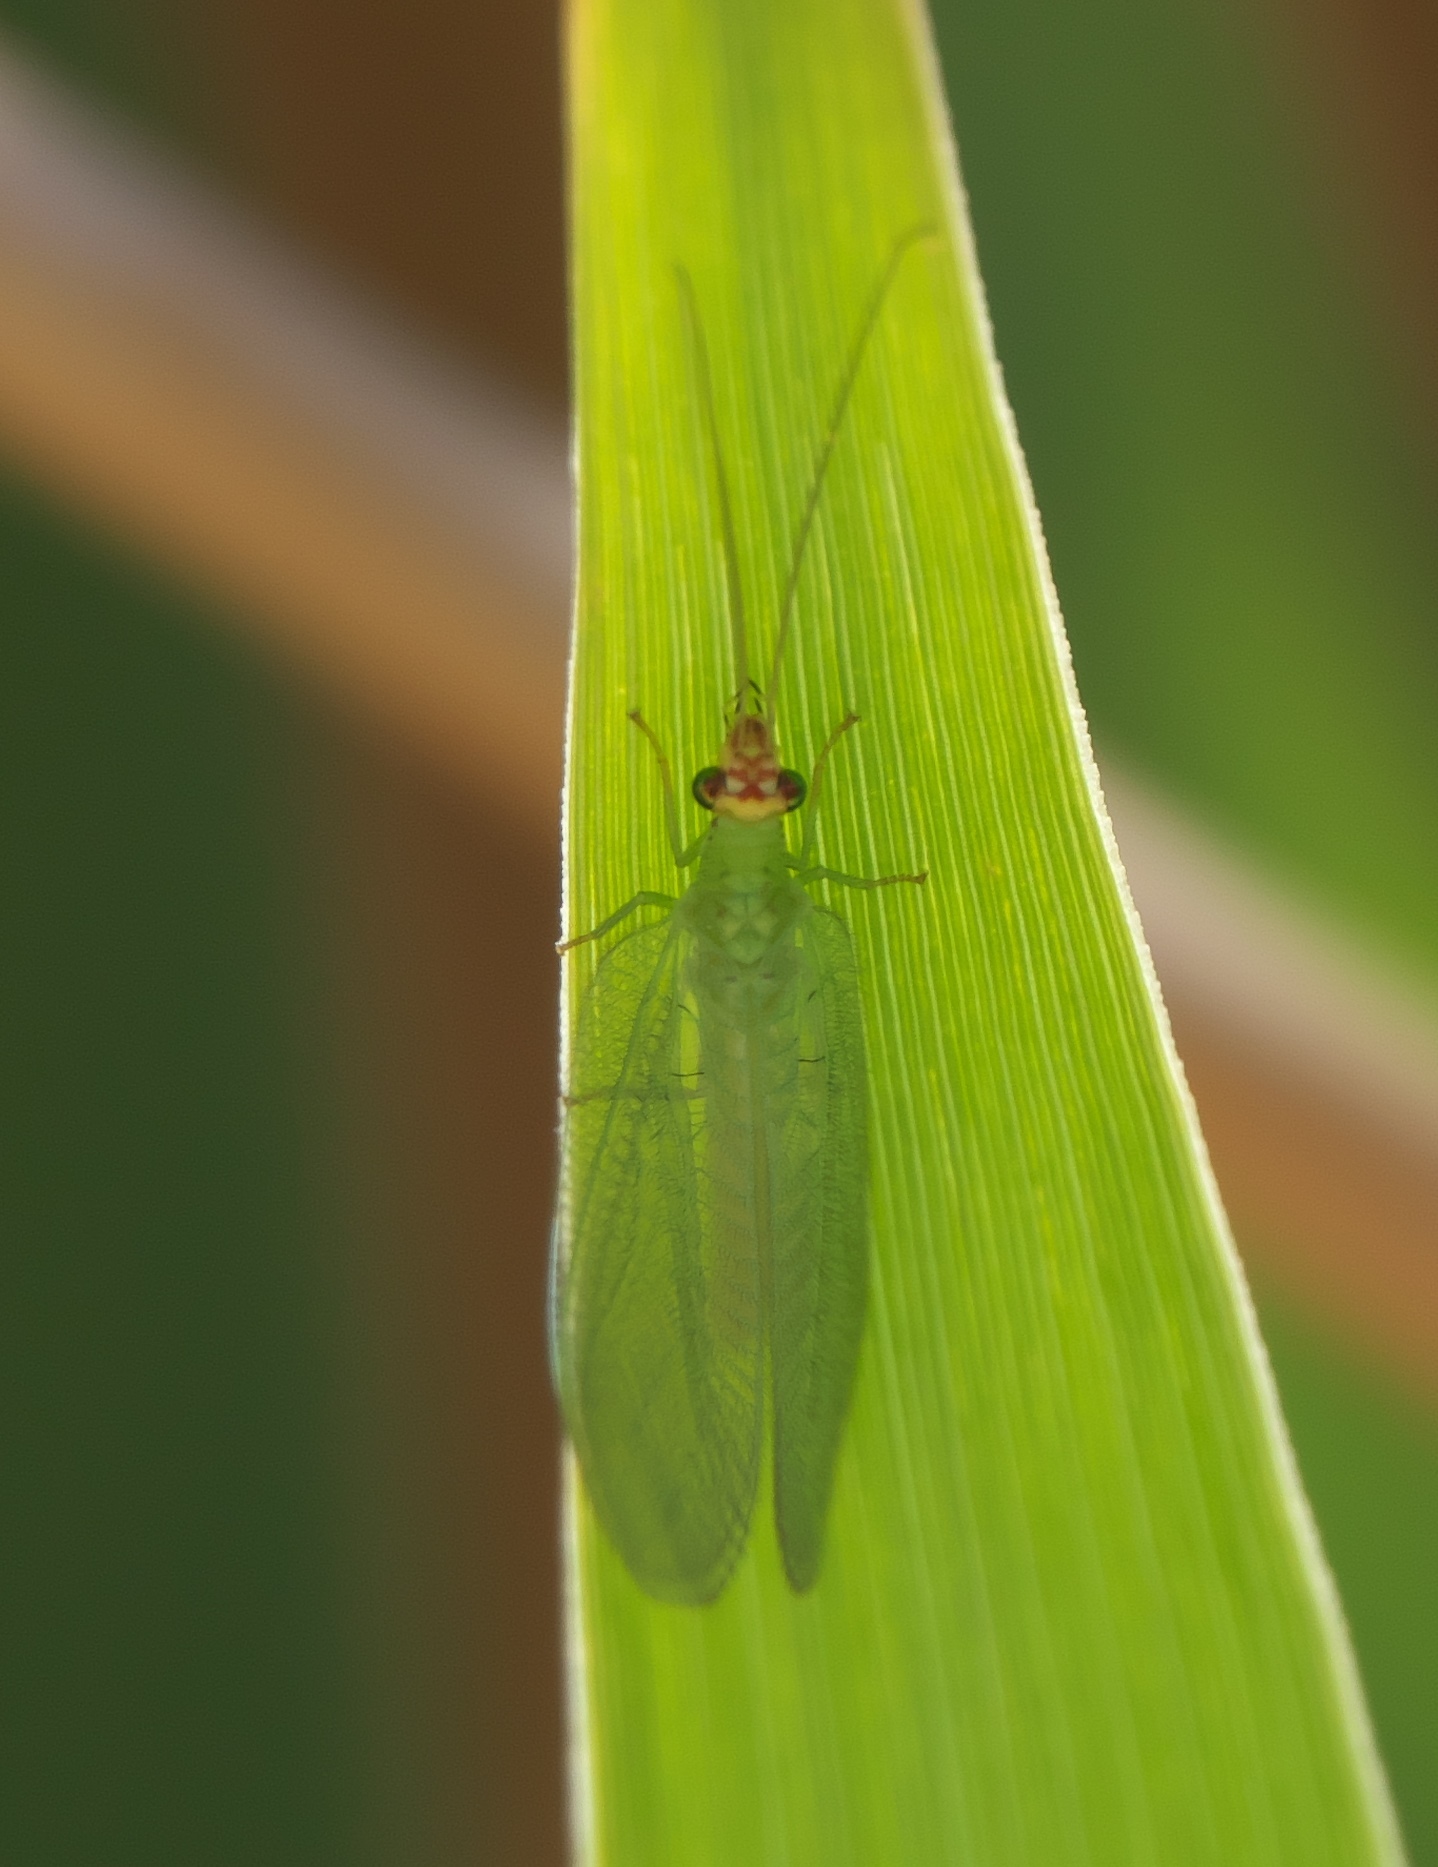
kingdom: Animalia
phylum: Arthropoda
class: Insecta
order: Neuroptera
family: Chrysopidae
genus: Chrysopa
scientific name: Chrysopa oculata
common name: Golden-eyed lacewing
